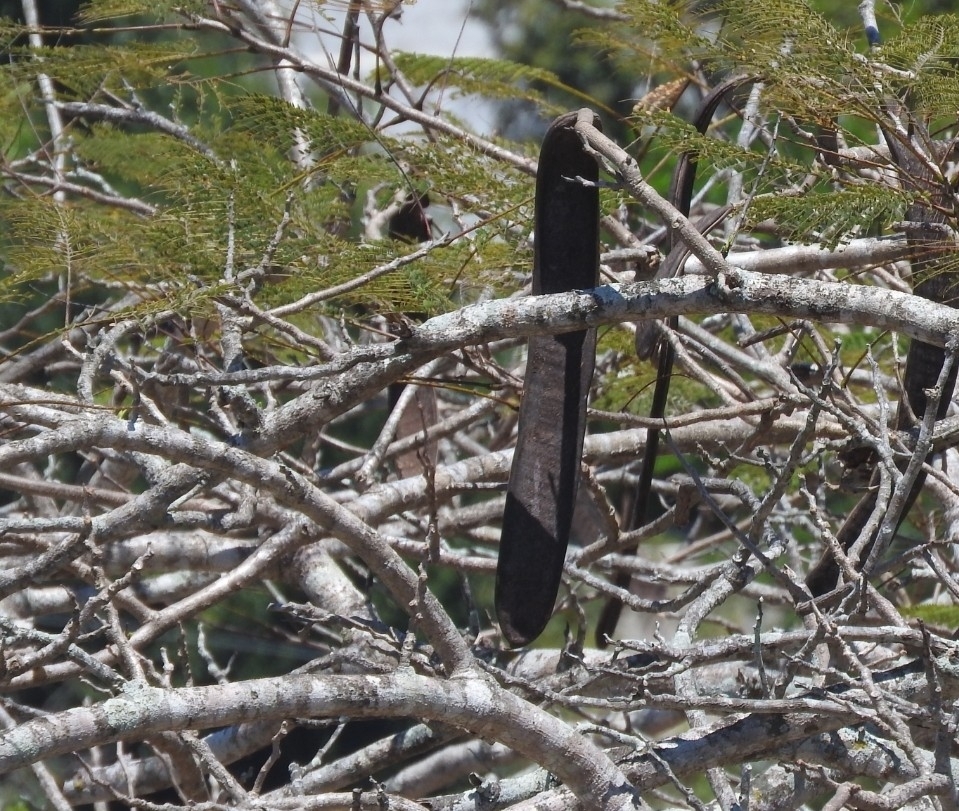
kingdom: Plantae
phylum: Tracheophyta
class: Magnoliopsida
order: Fabales
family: Fabaceae
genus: Delonix
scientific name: Delonix regia
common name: Royal poinciana
